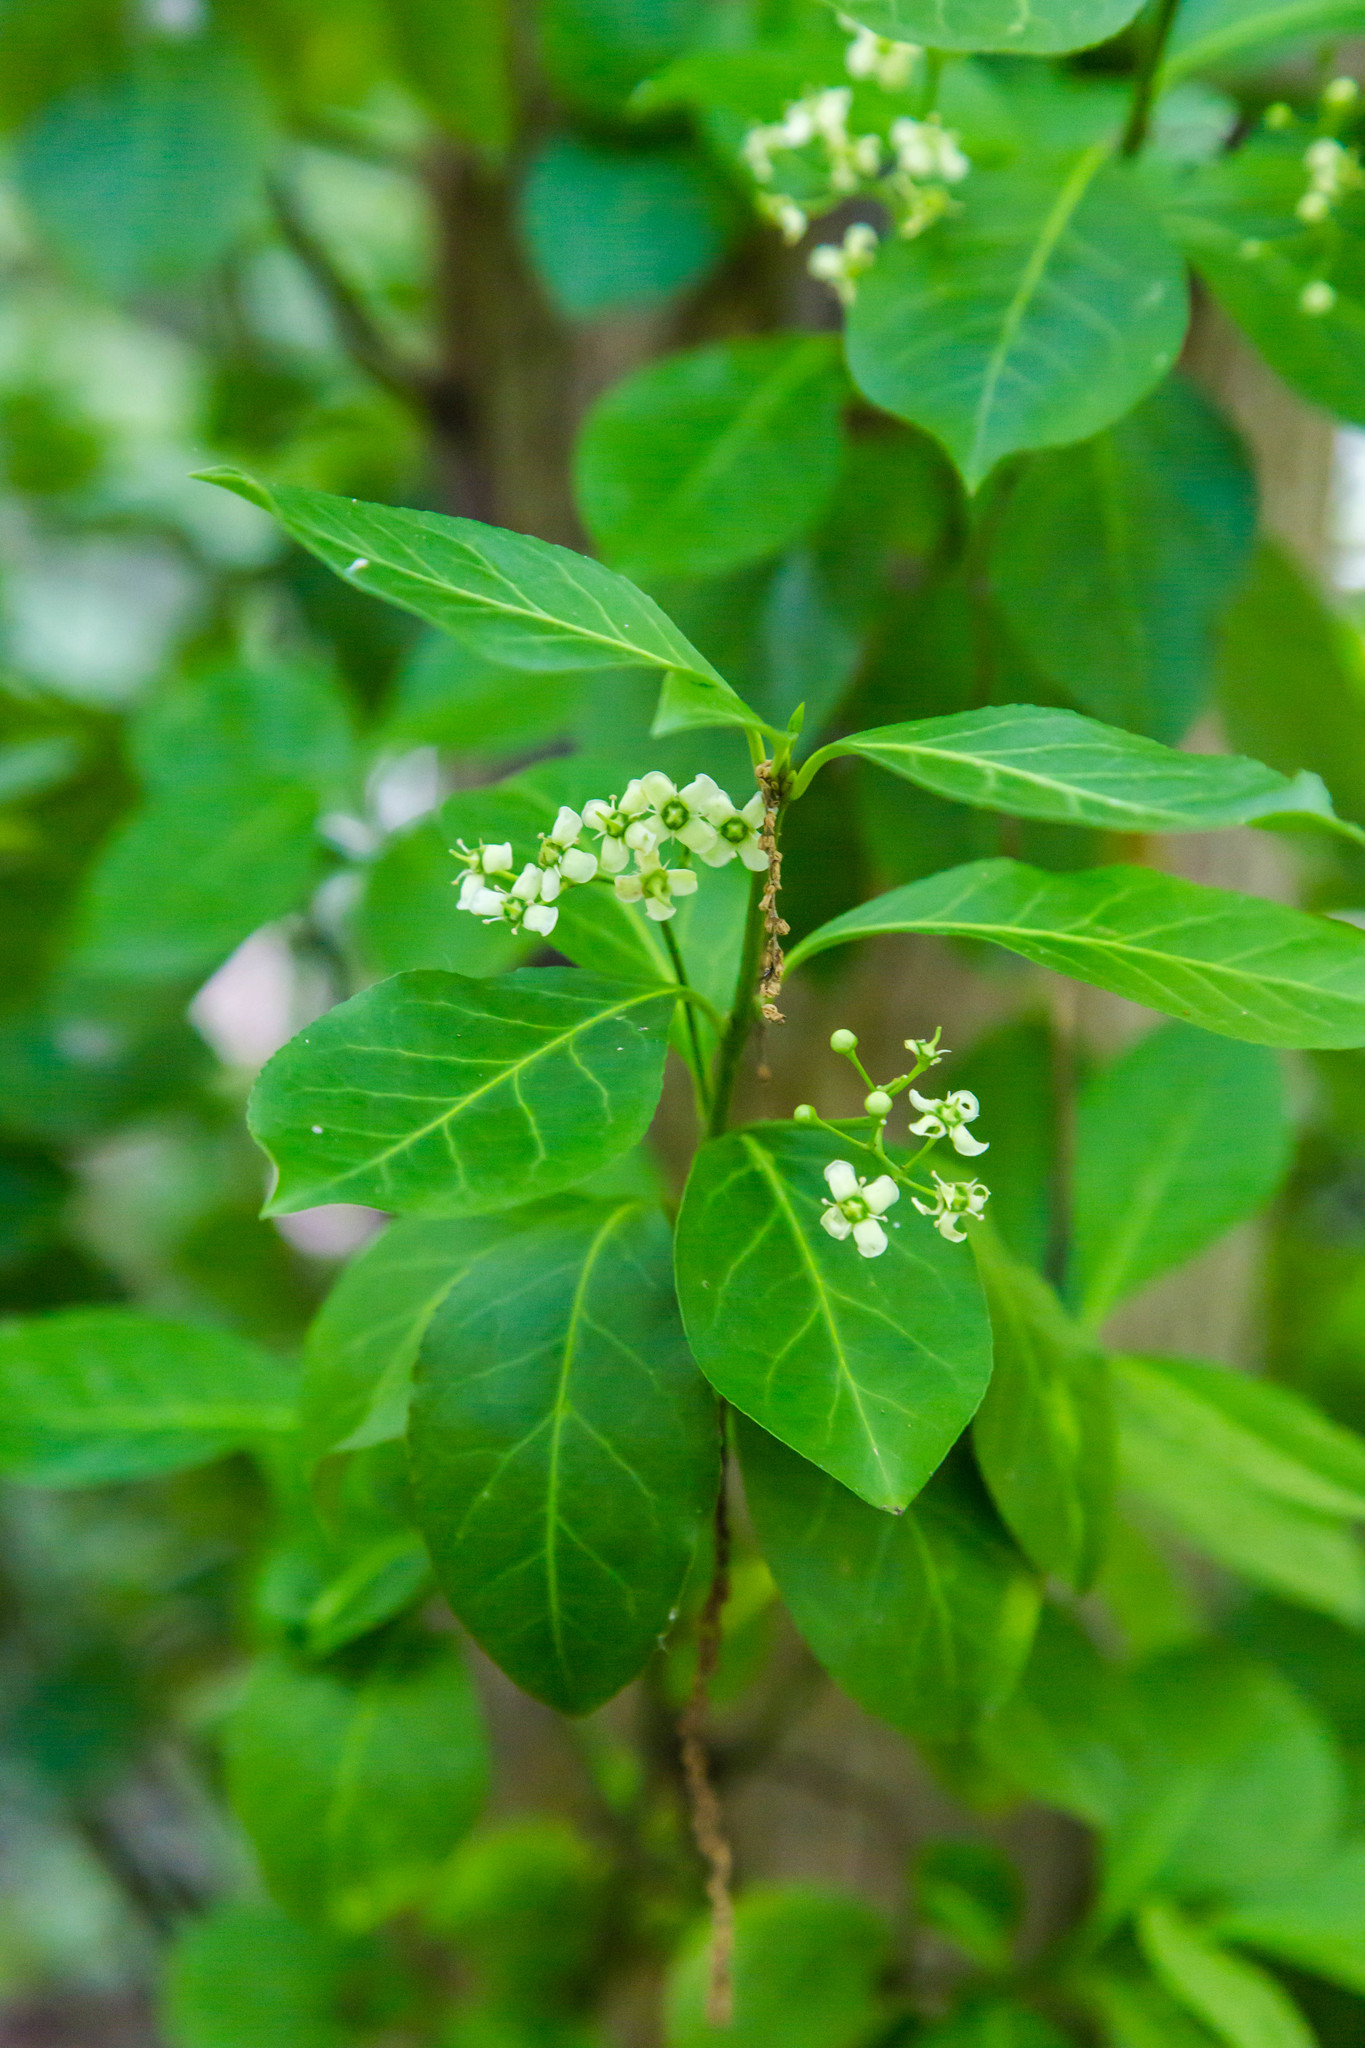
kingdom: Plantae
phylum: Tracheophyta
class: Magnoliopsida
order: Celastrales
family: Celastraceae
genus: Euonymus
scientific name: Euonymus fortunei
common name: Climbing euonymus
